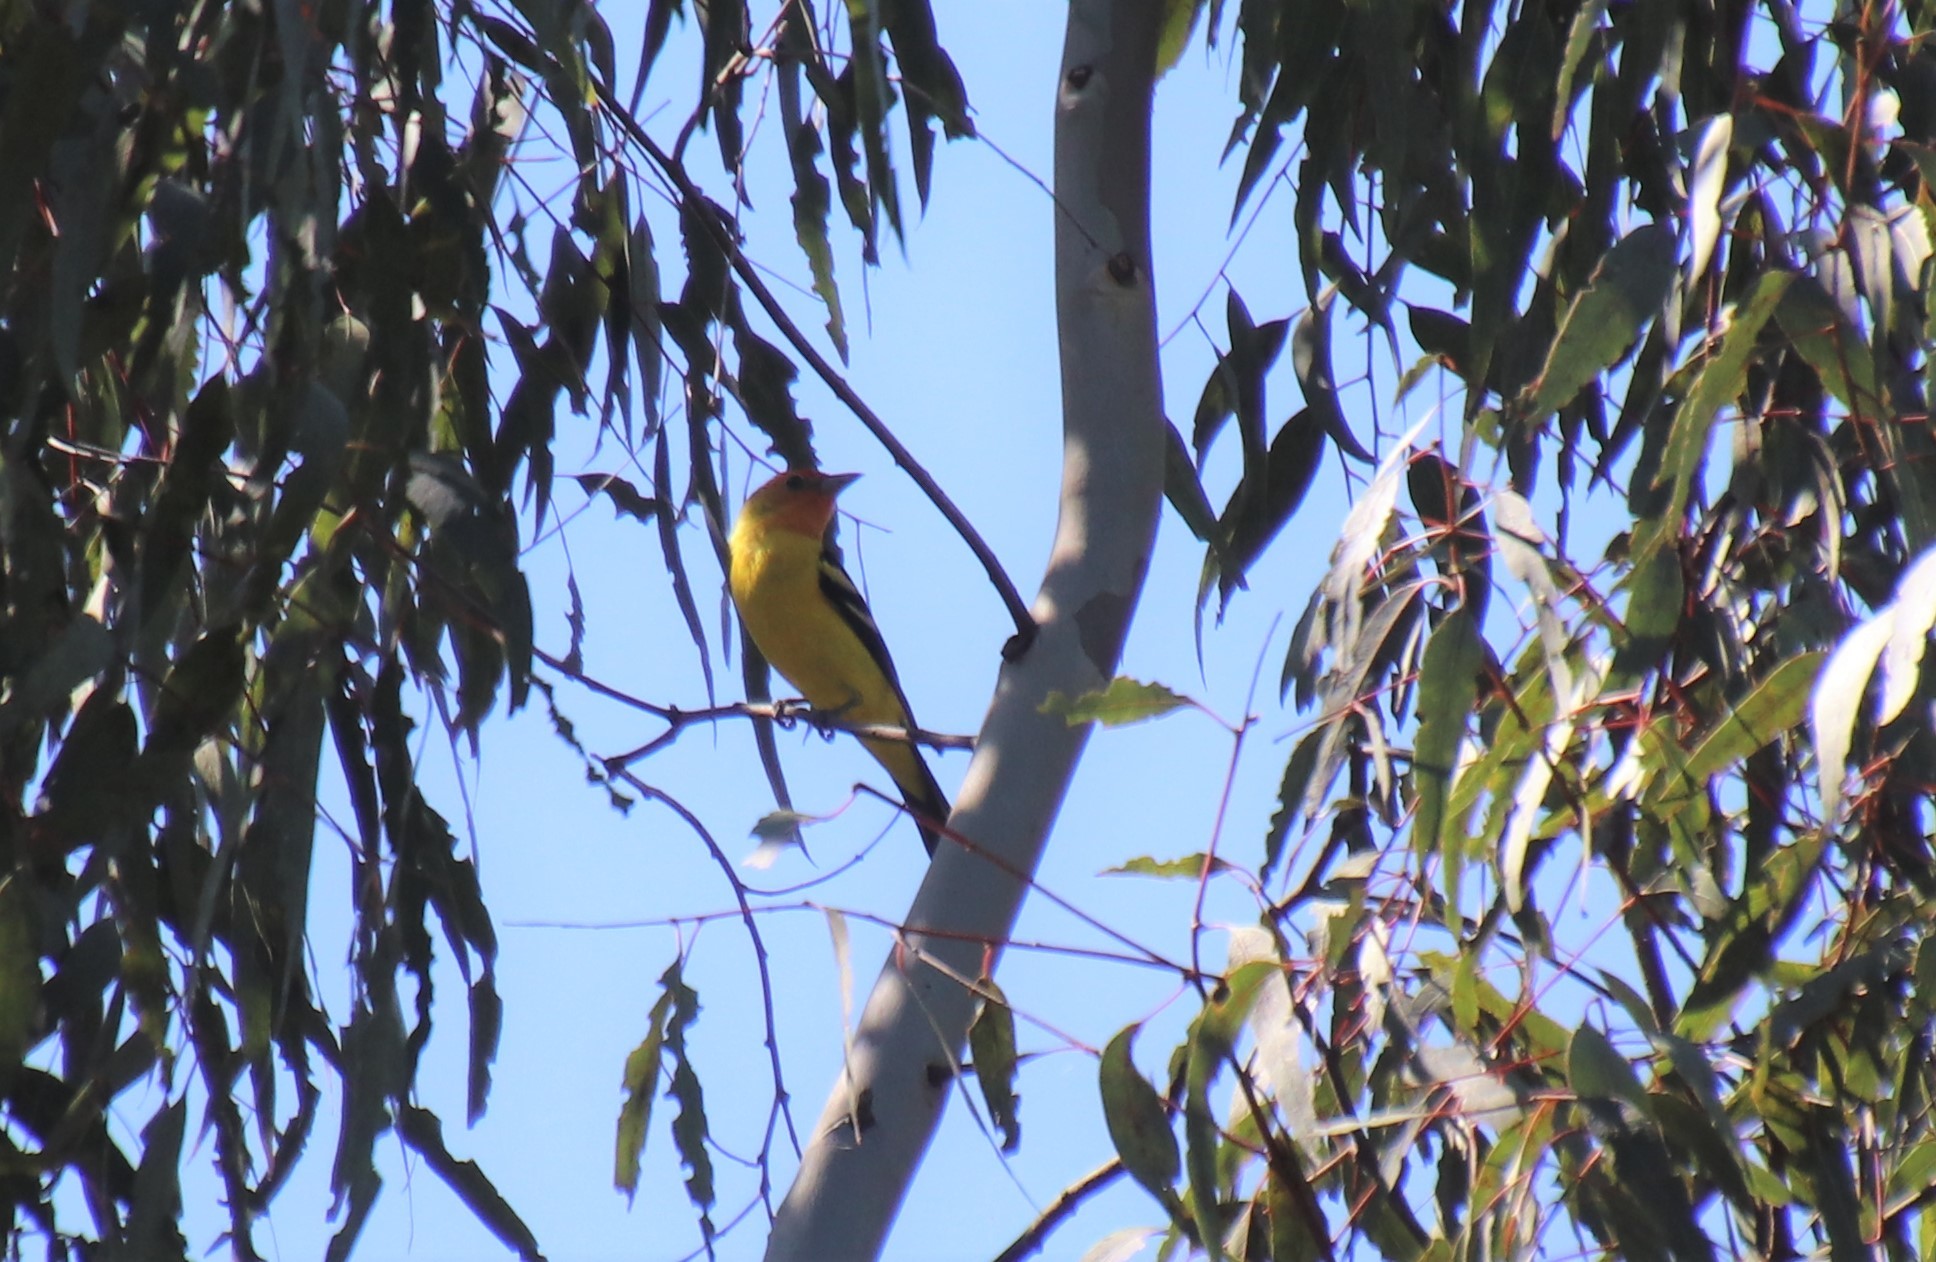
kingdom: Animalia
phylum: Chordata
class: Aves
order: Passeriformes
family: Cardinalidae
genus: Piranga
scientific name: Piranga ludoviciana
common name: Western tanager
